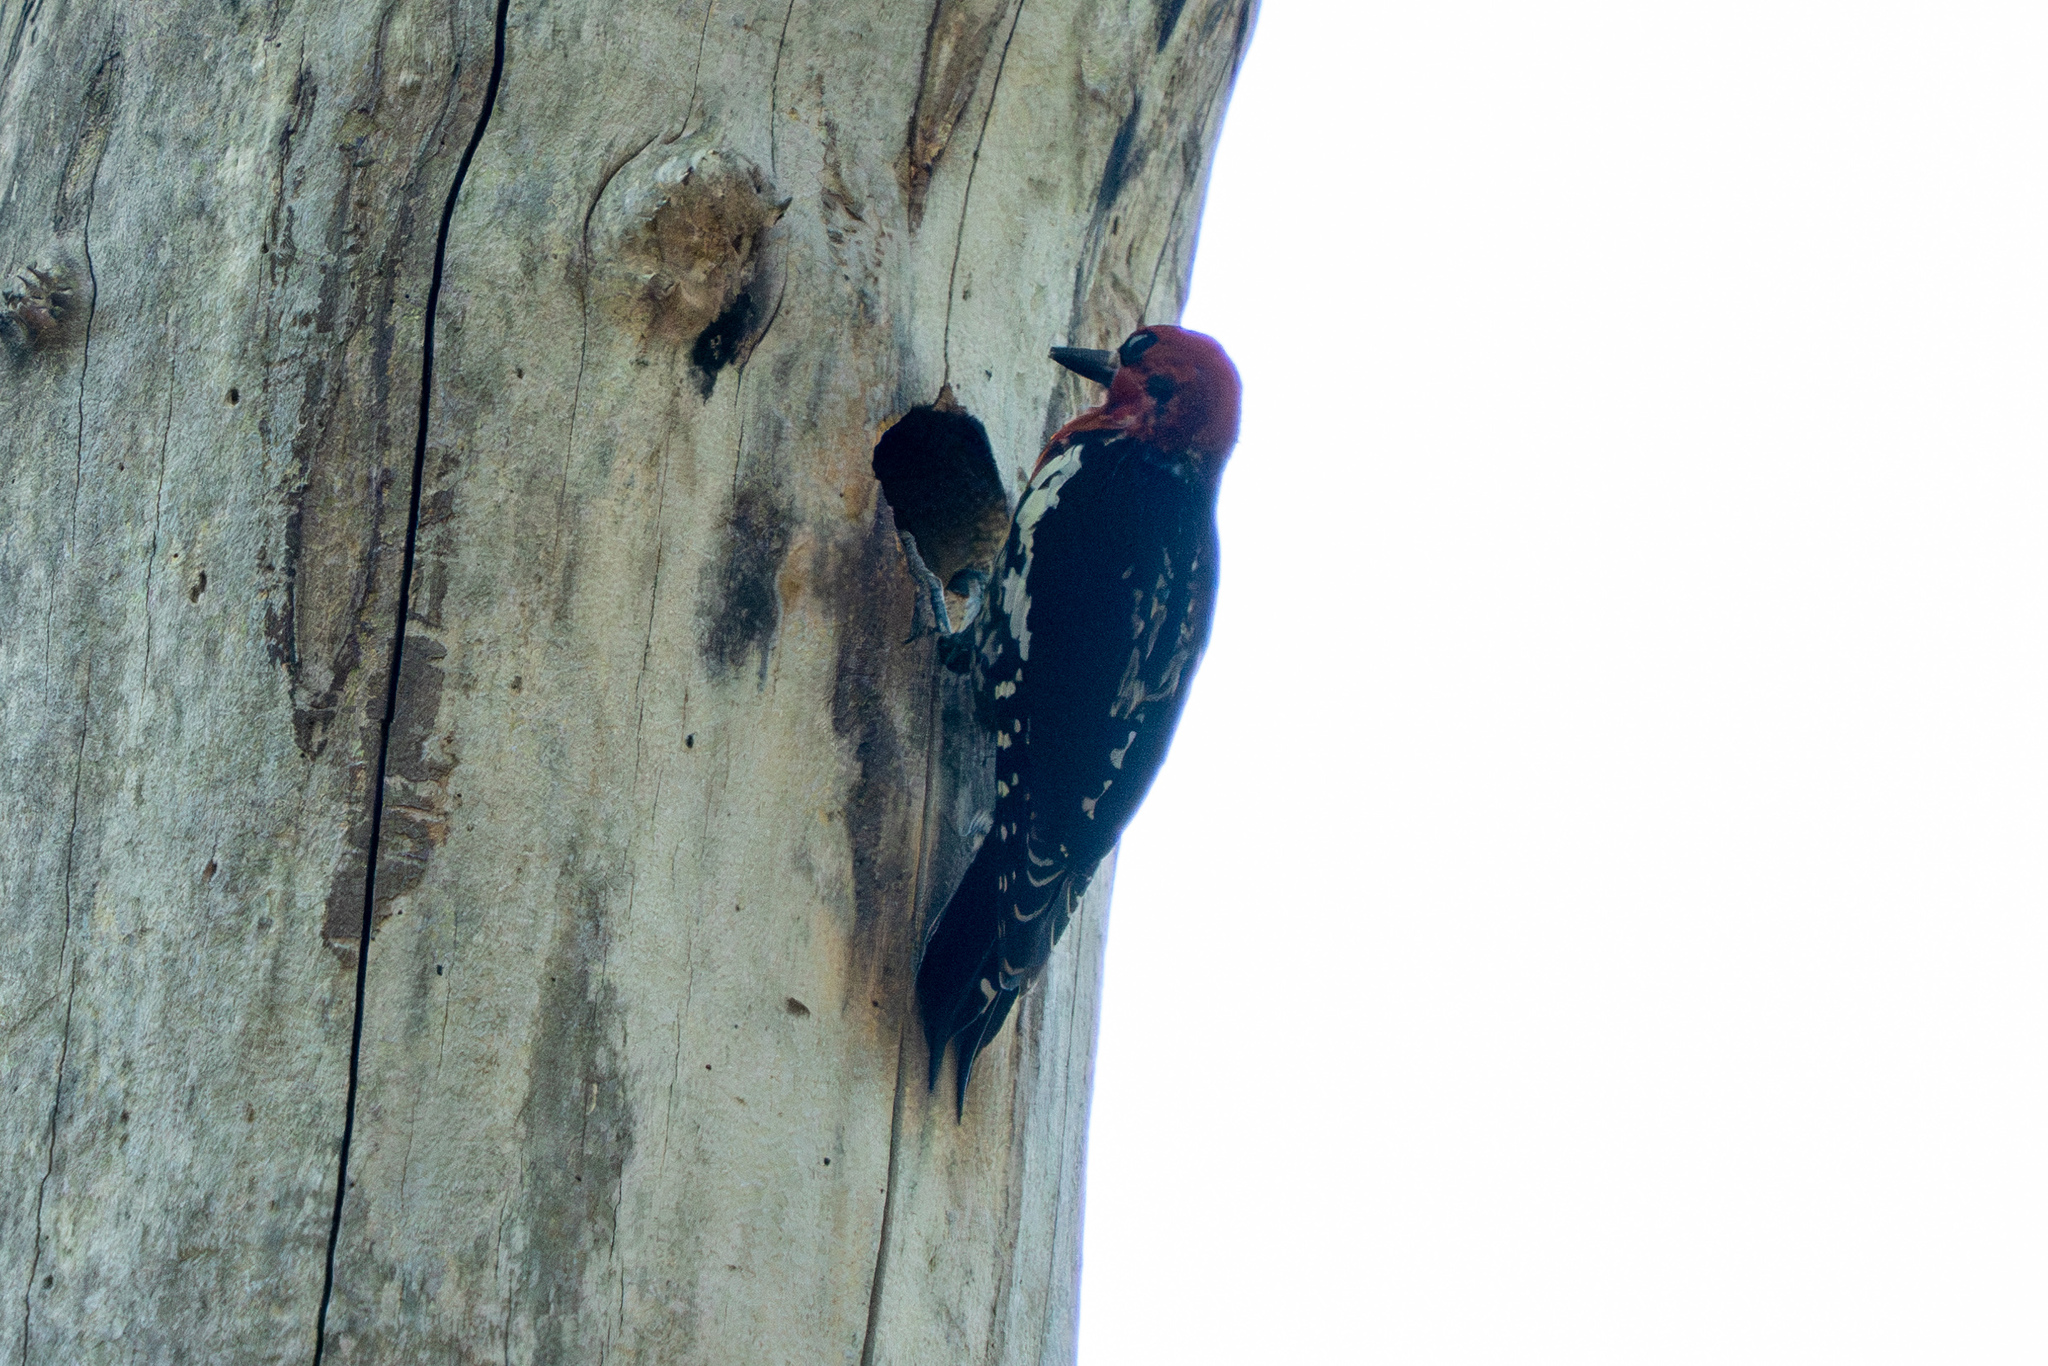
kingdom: Animalia
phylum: Chordata
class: Aves
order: Piciformes
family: Picidae
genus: Sphyrapicus
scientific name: Sphyrapicus ruber
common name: Red-breasted sapsucker
